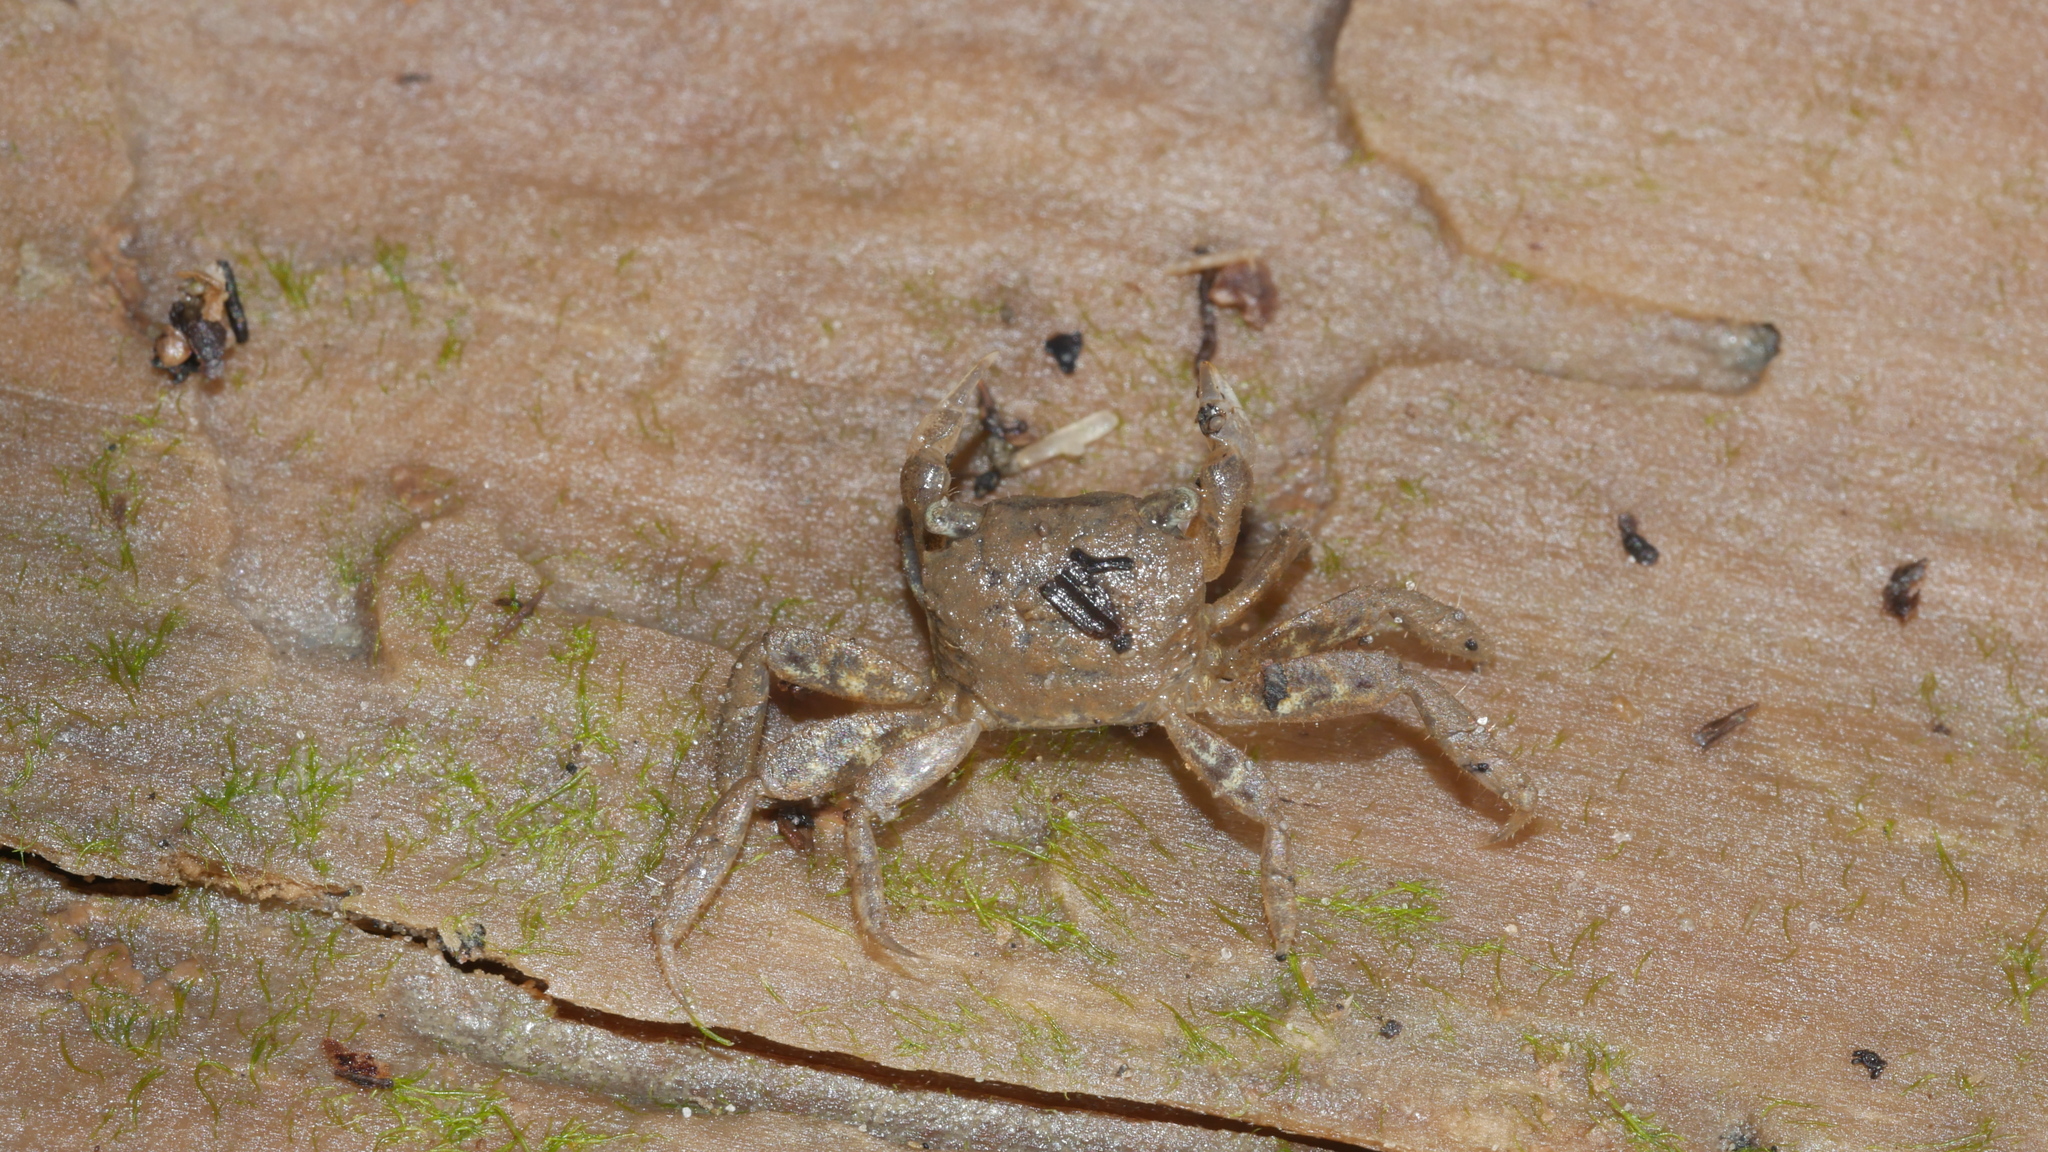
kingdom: Animalia
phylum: Arthropoda
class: Malacostraca
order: Decapoda
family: Sesarmidae
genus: Armases
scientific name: Armases cinereum
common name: Squareback marsh crab
